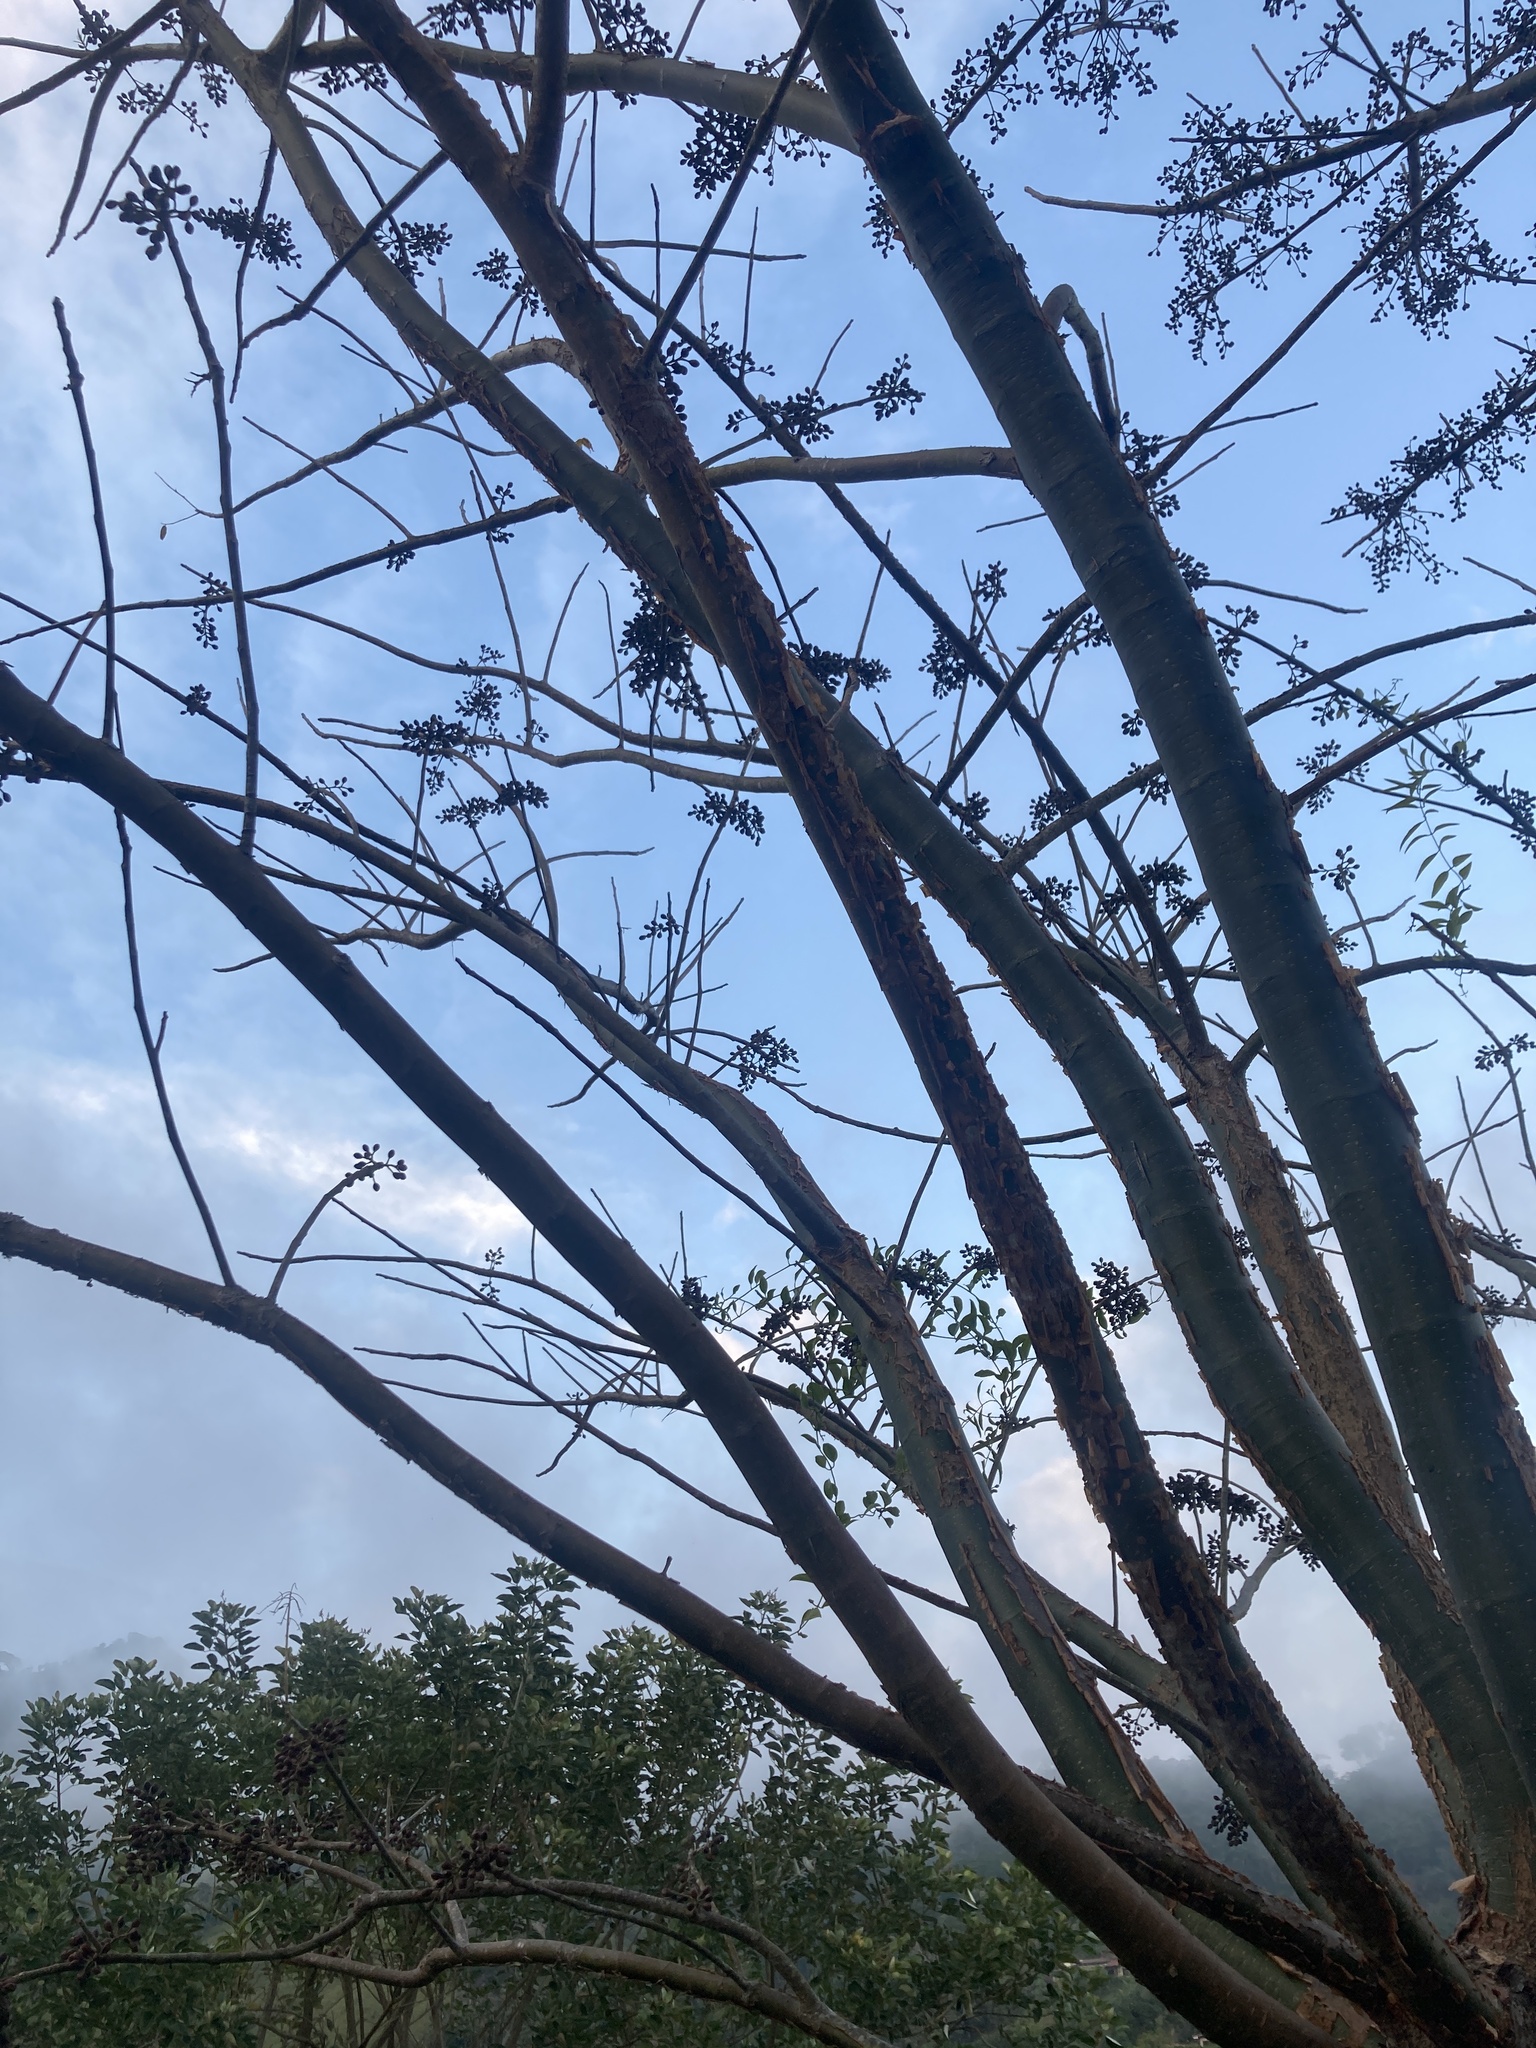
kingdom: Plantae
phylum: Tracheophyta
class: Magnoliopsida
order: Sapindales
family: Burseraceae
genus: Bursera
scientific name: Bursera simaruba
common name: Turpentine tree
